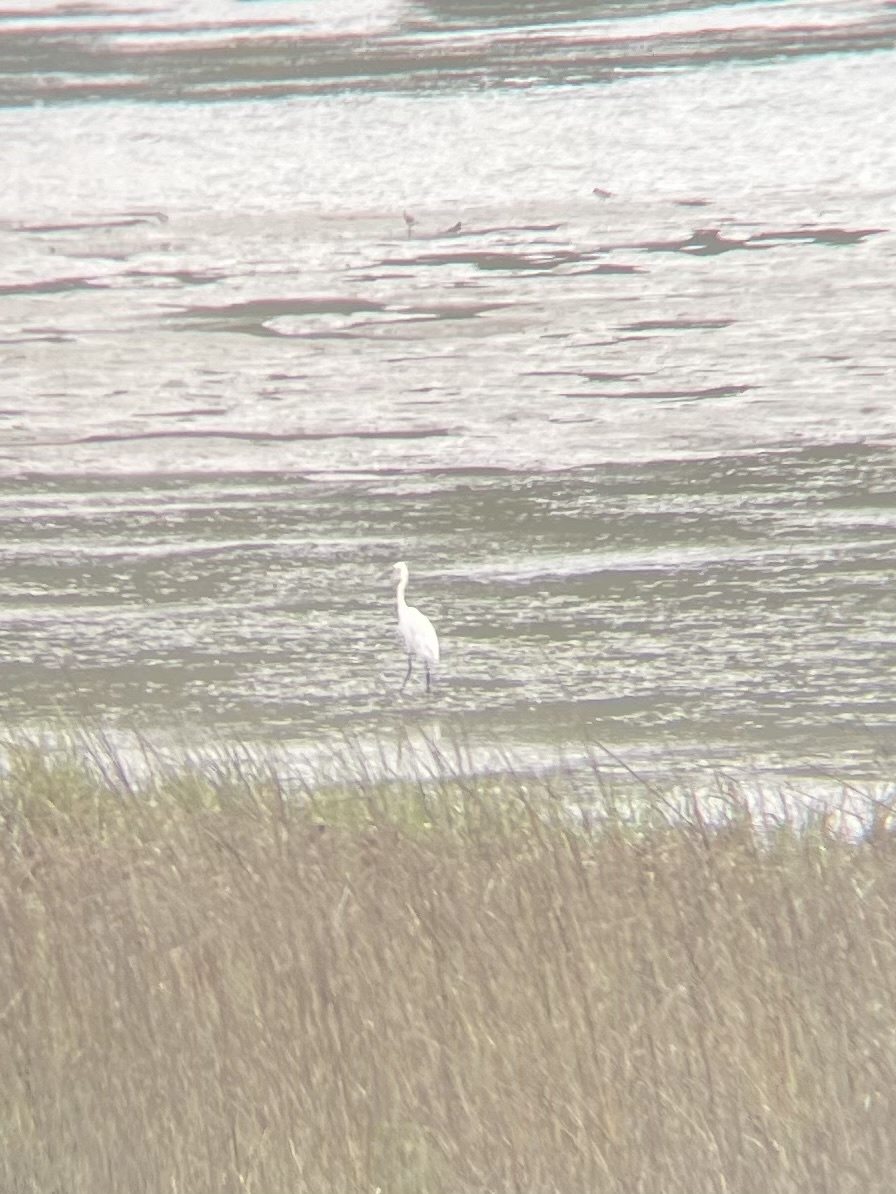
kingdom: Animalia
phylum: Chordata
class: Aves
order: Pelecaniformes
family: Ardeidae
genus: Egretta
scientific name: Egretta thula
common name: Snowy egret
